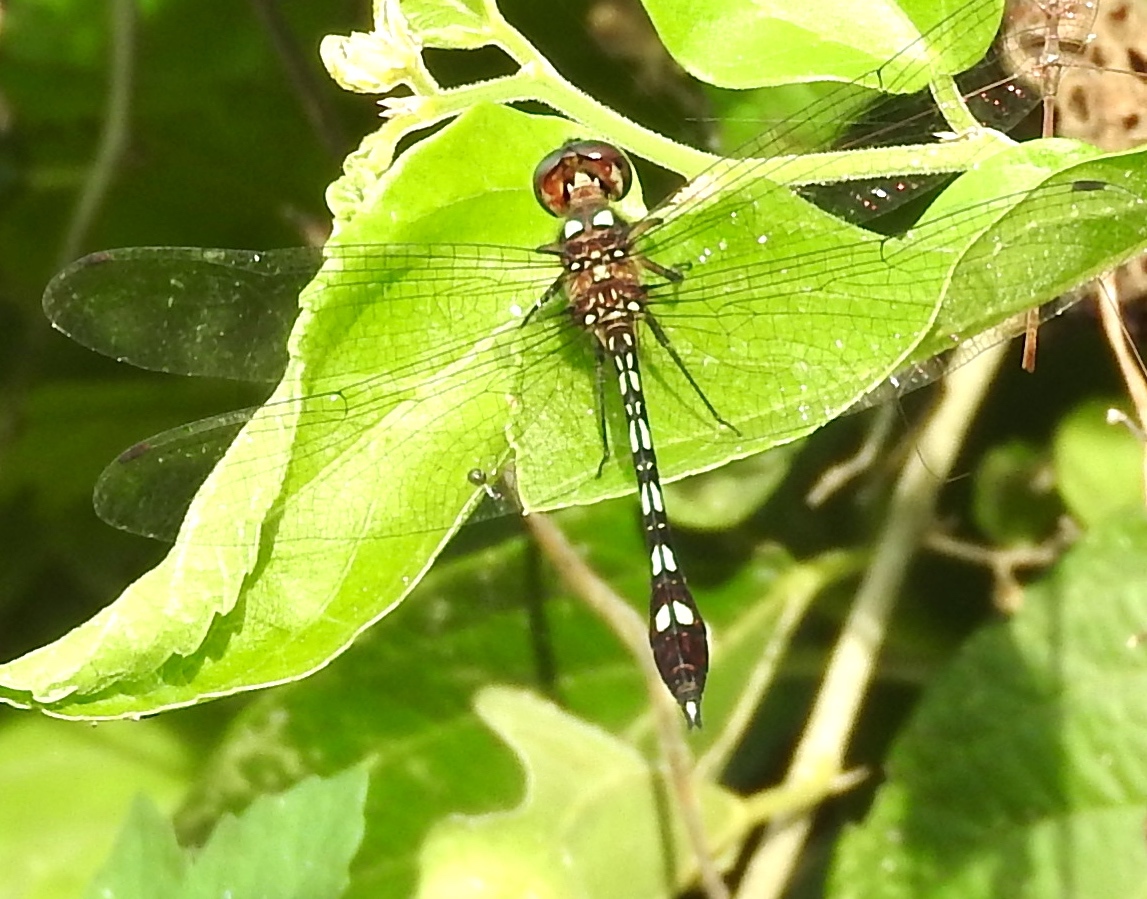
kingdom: Animalia
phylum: Arthropoda
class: Insecta
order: Odonata
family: Libellulidae
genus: Macrothemis
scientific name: Macrothemis hemichlora
